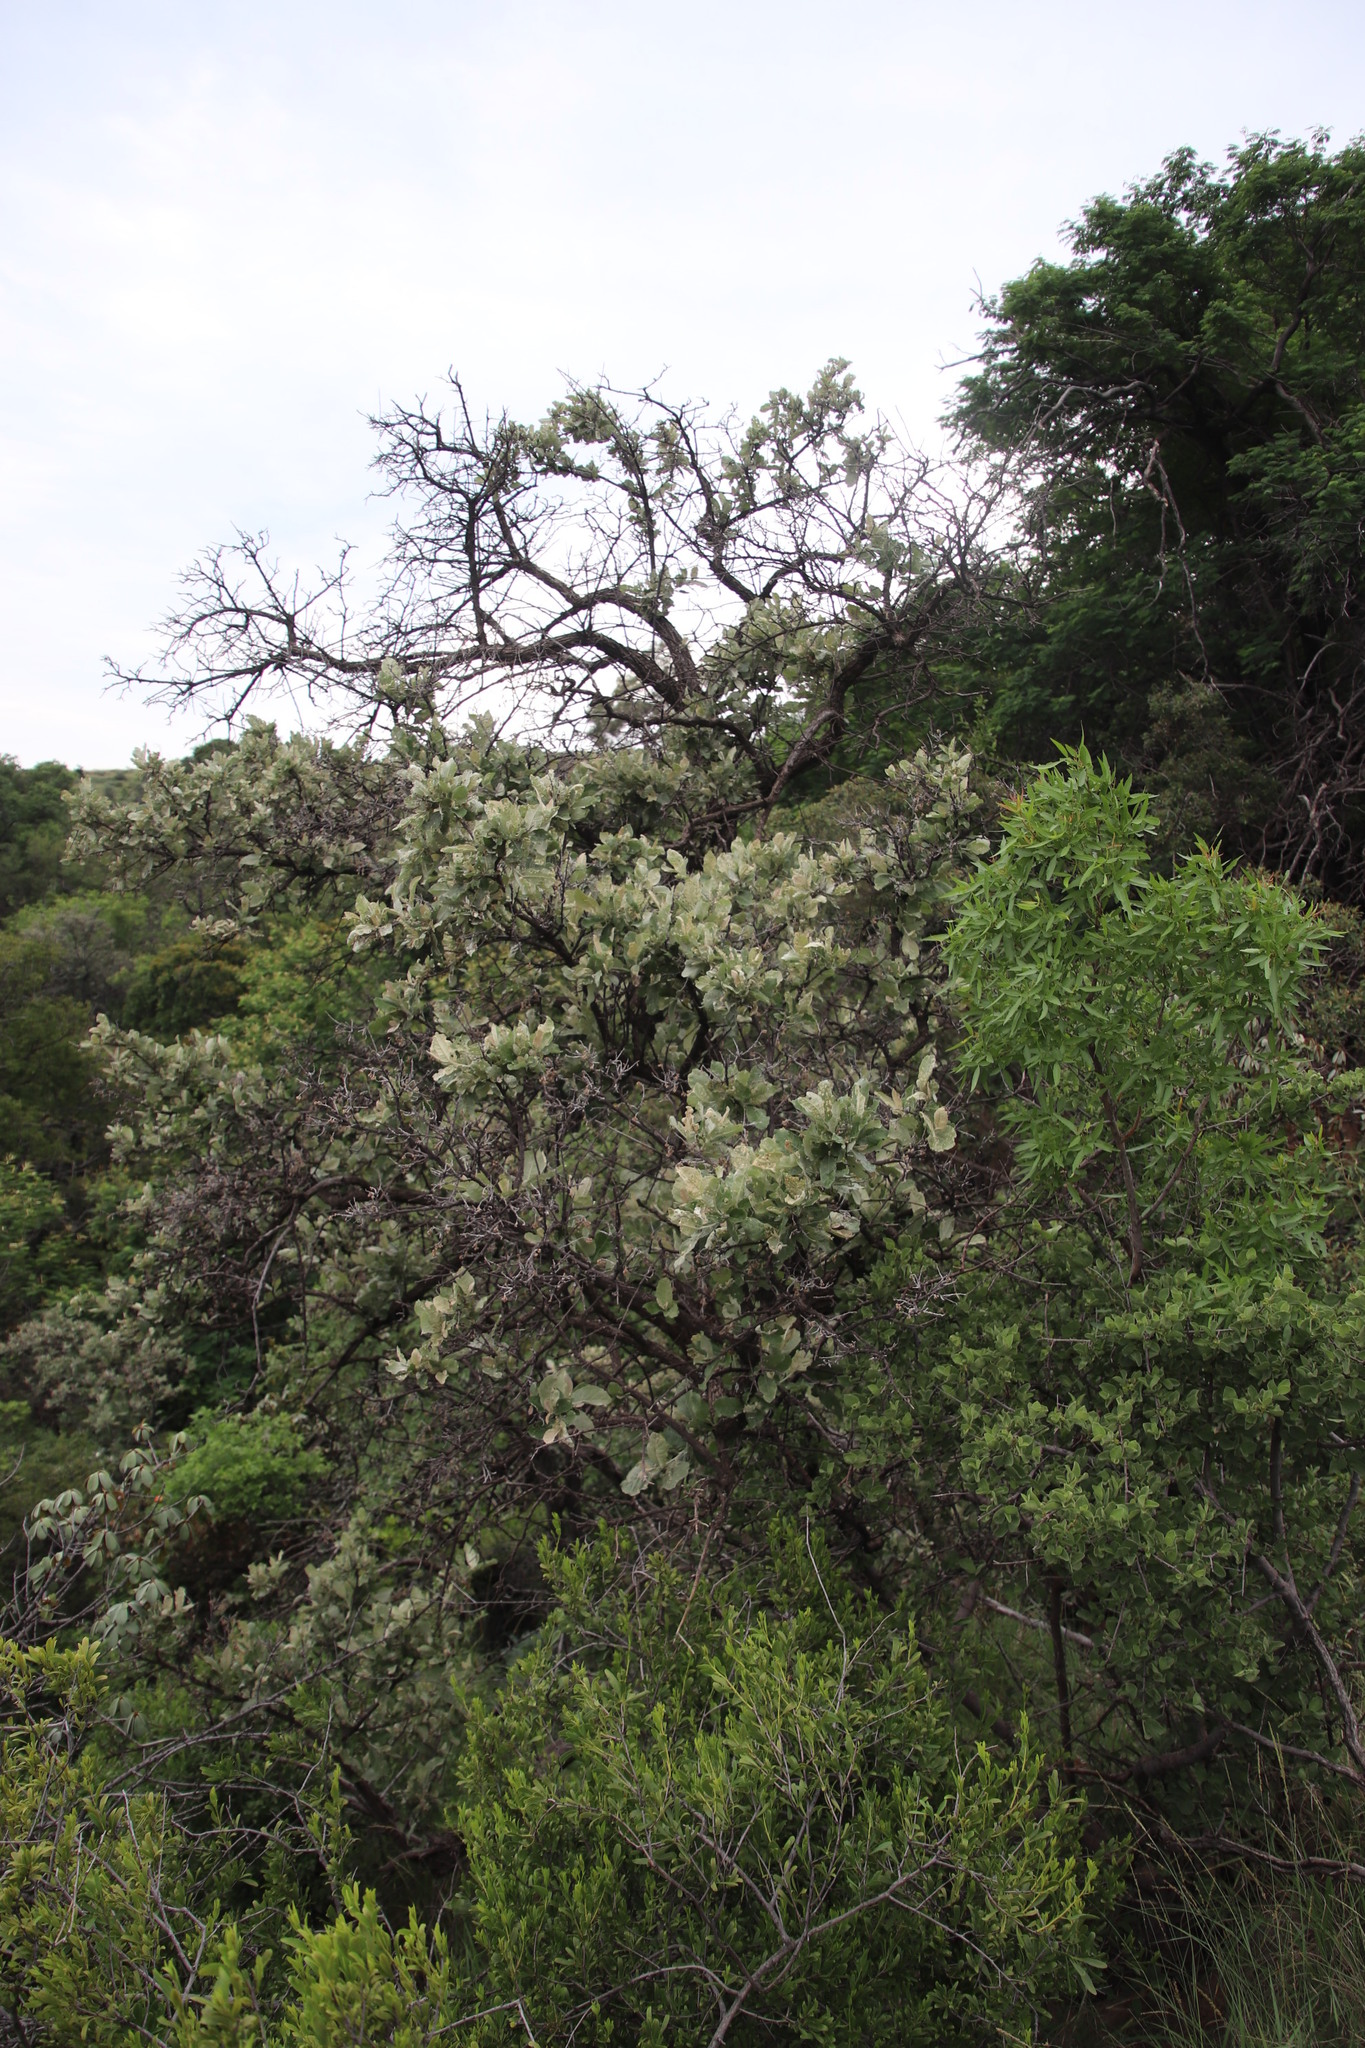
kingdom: Plantae
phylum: Tracheophyta
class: Magnoliopsida
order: Asterales
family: Asteraceae
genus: Brachylaena
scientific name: Brachylaena discolor
